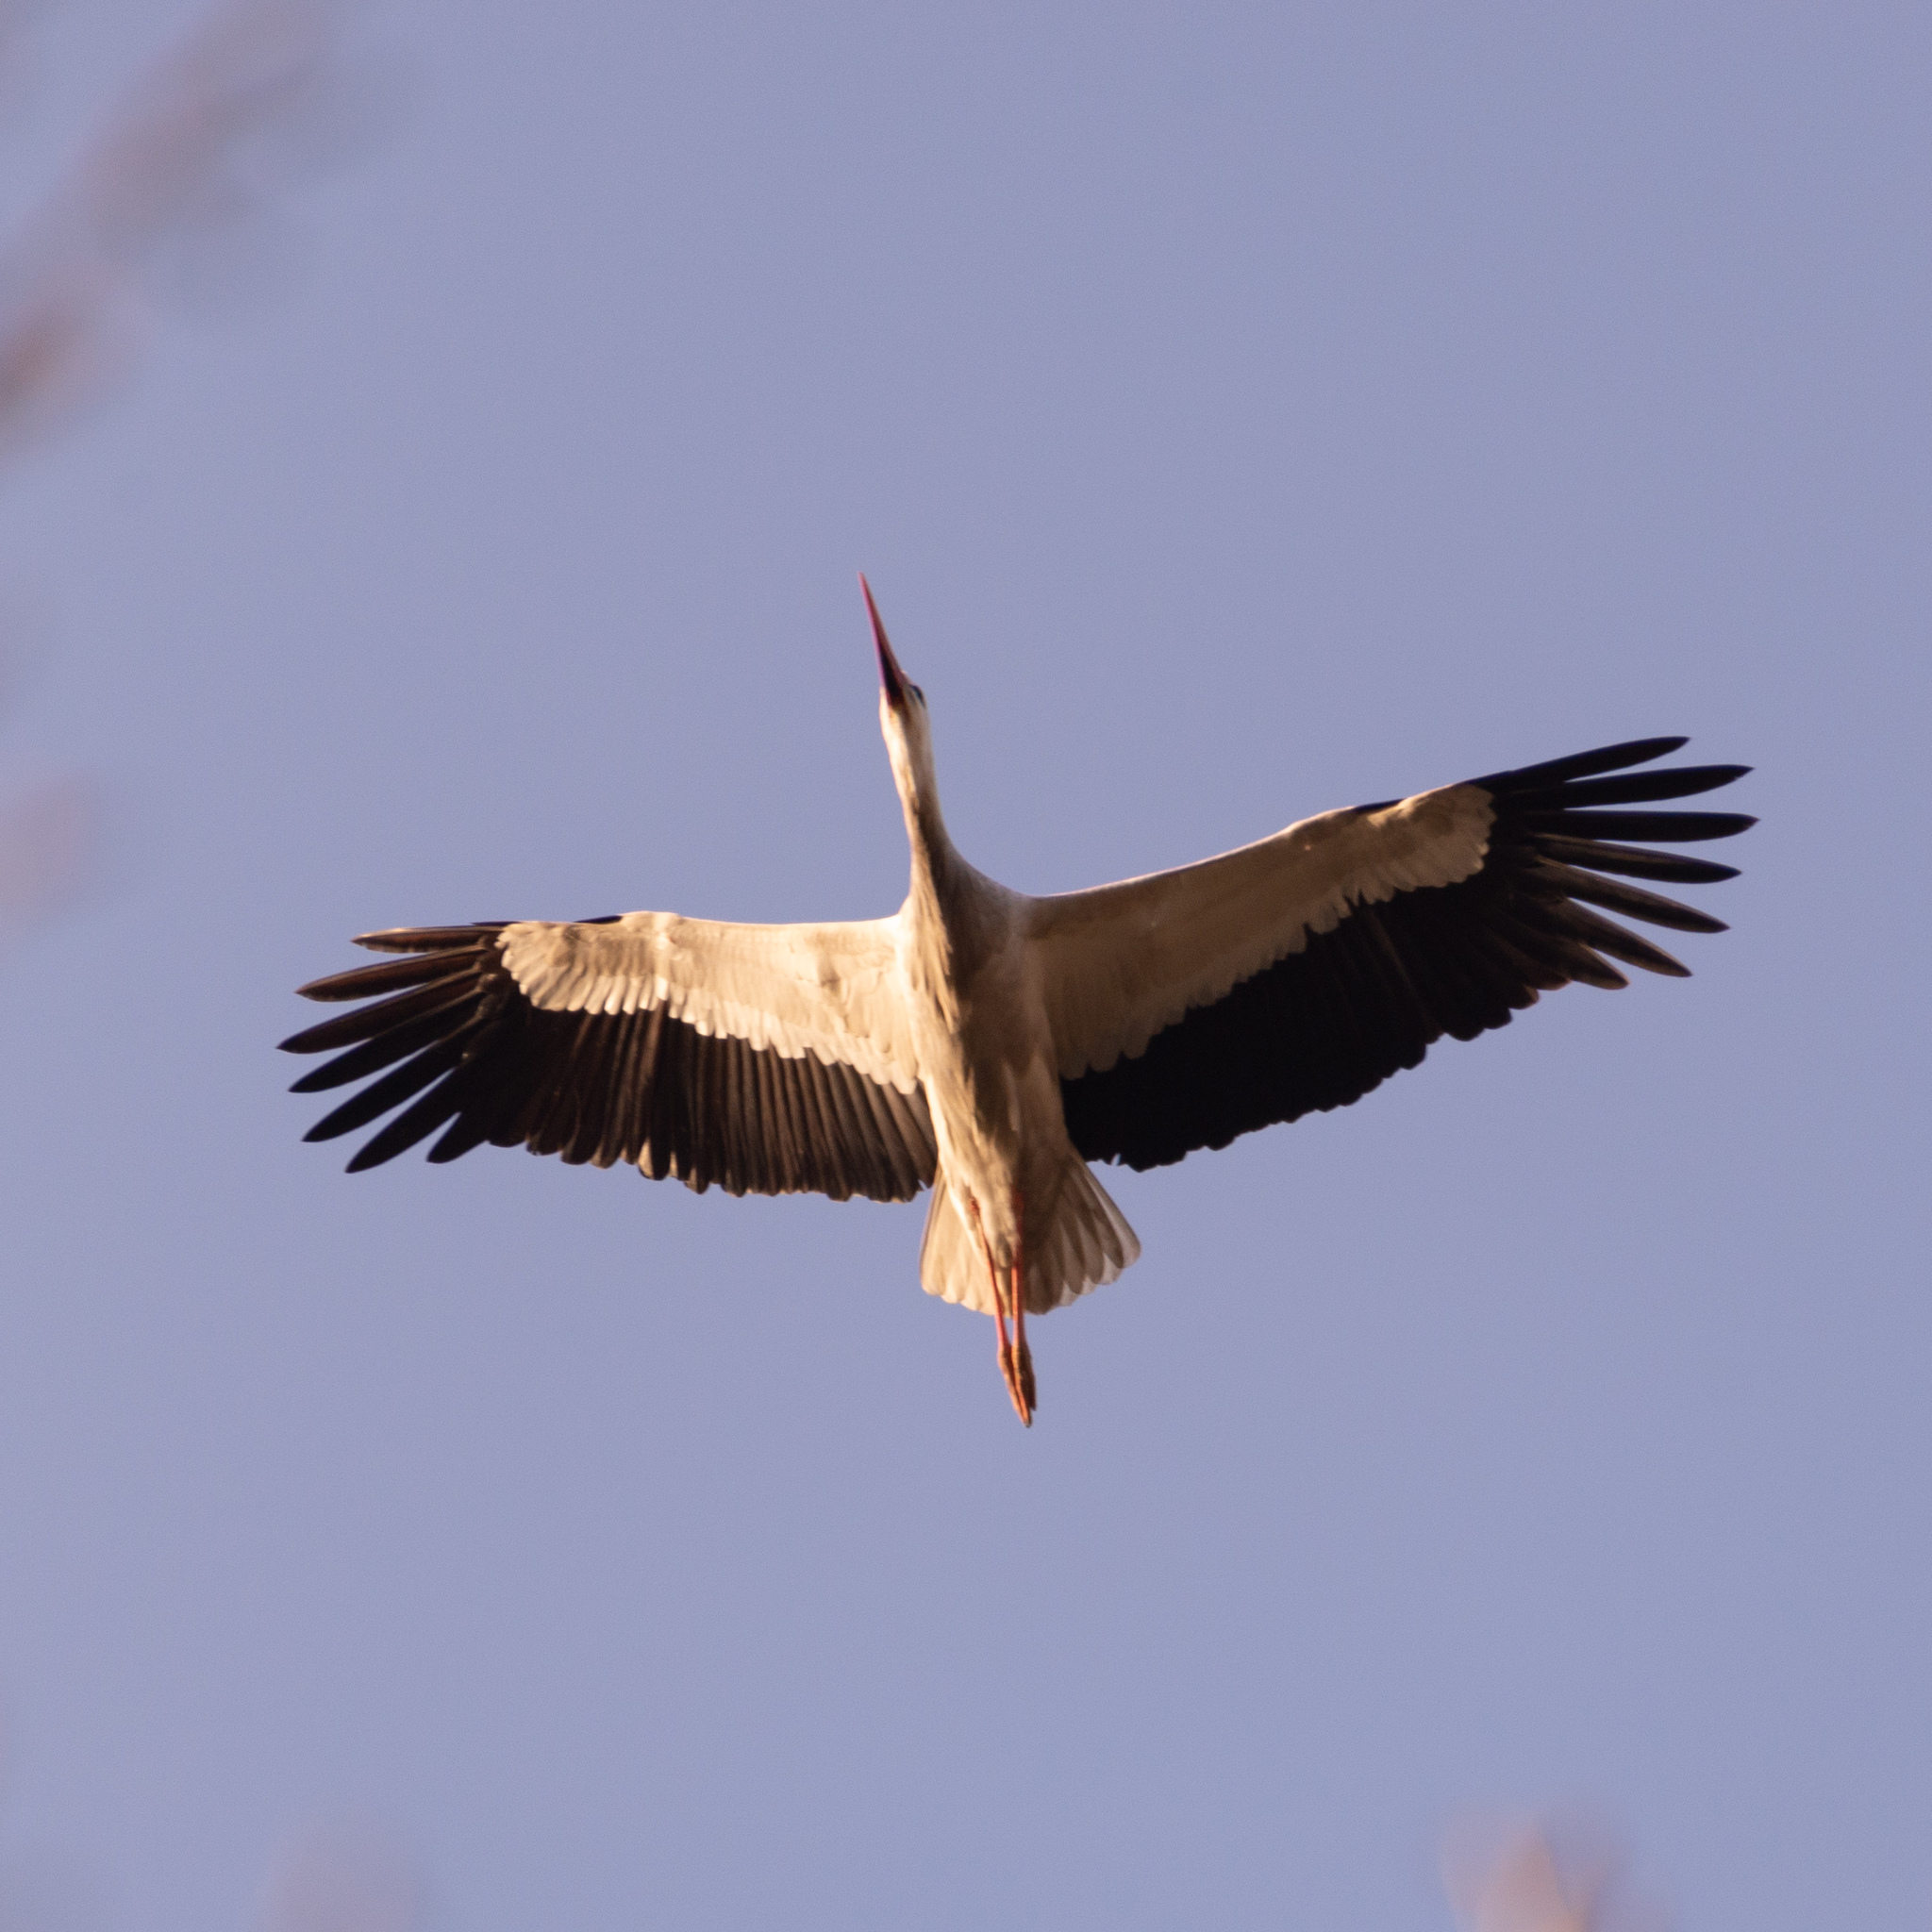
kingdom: Animalia
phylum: Chordata
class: Aves
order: Ciconiiformes
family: Ciconiidae
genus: Ciconia
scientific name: Ciconia ciconia
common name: White stork
